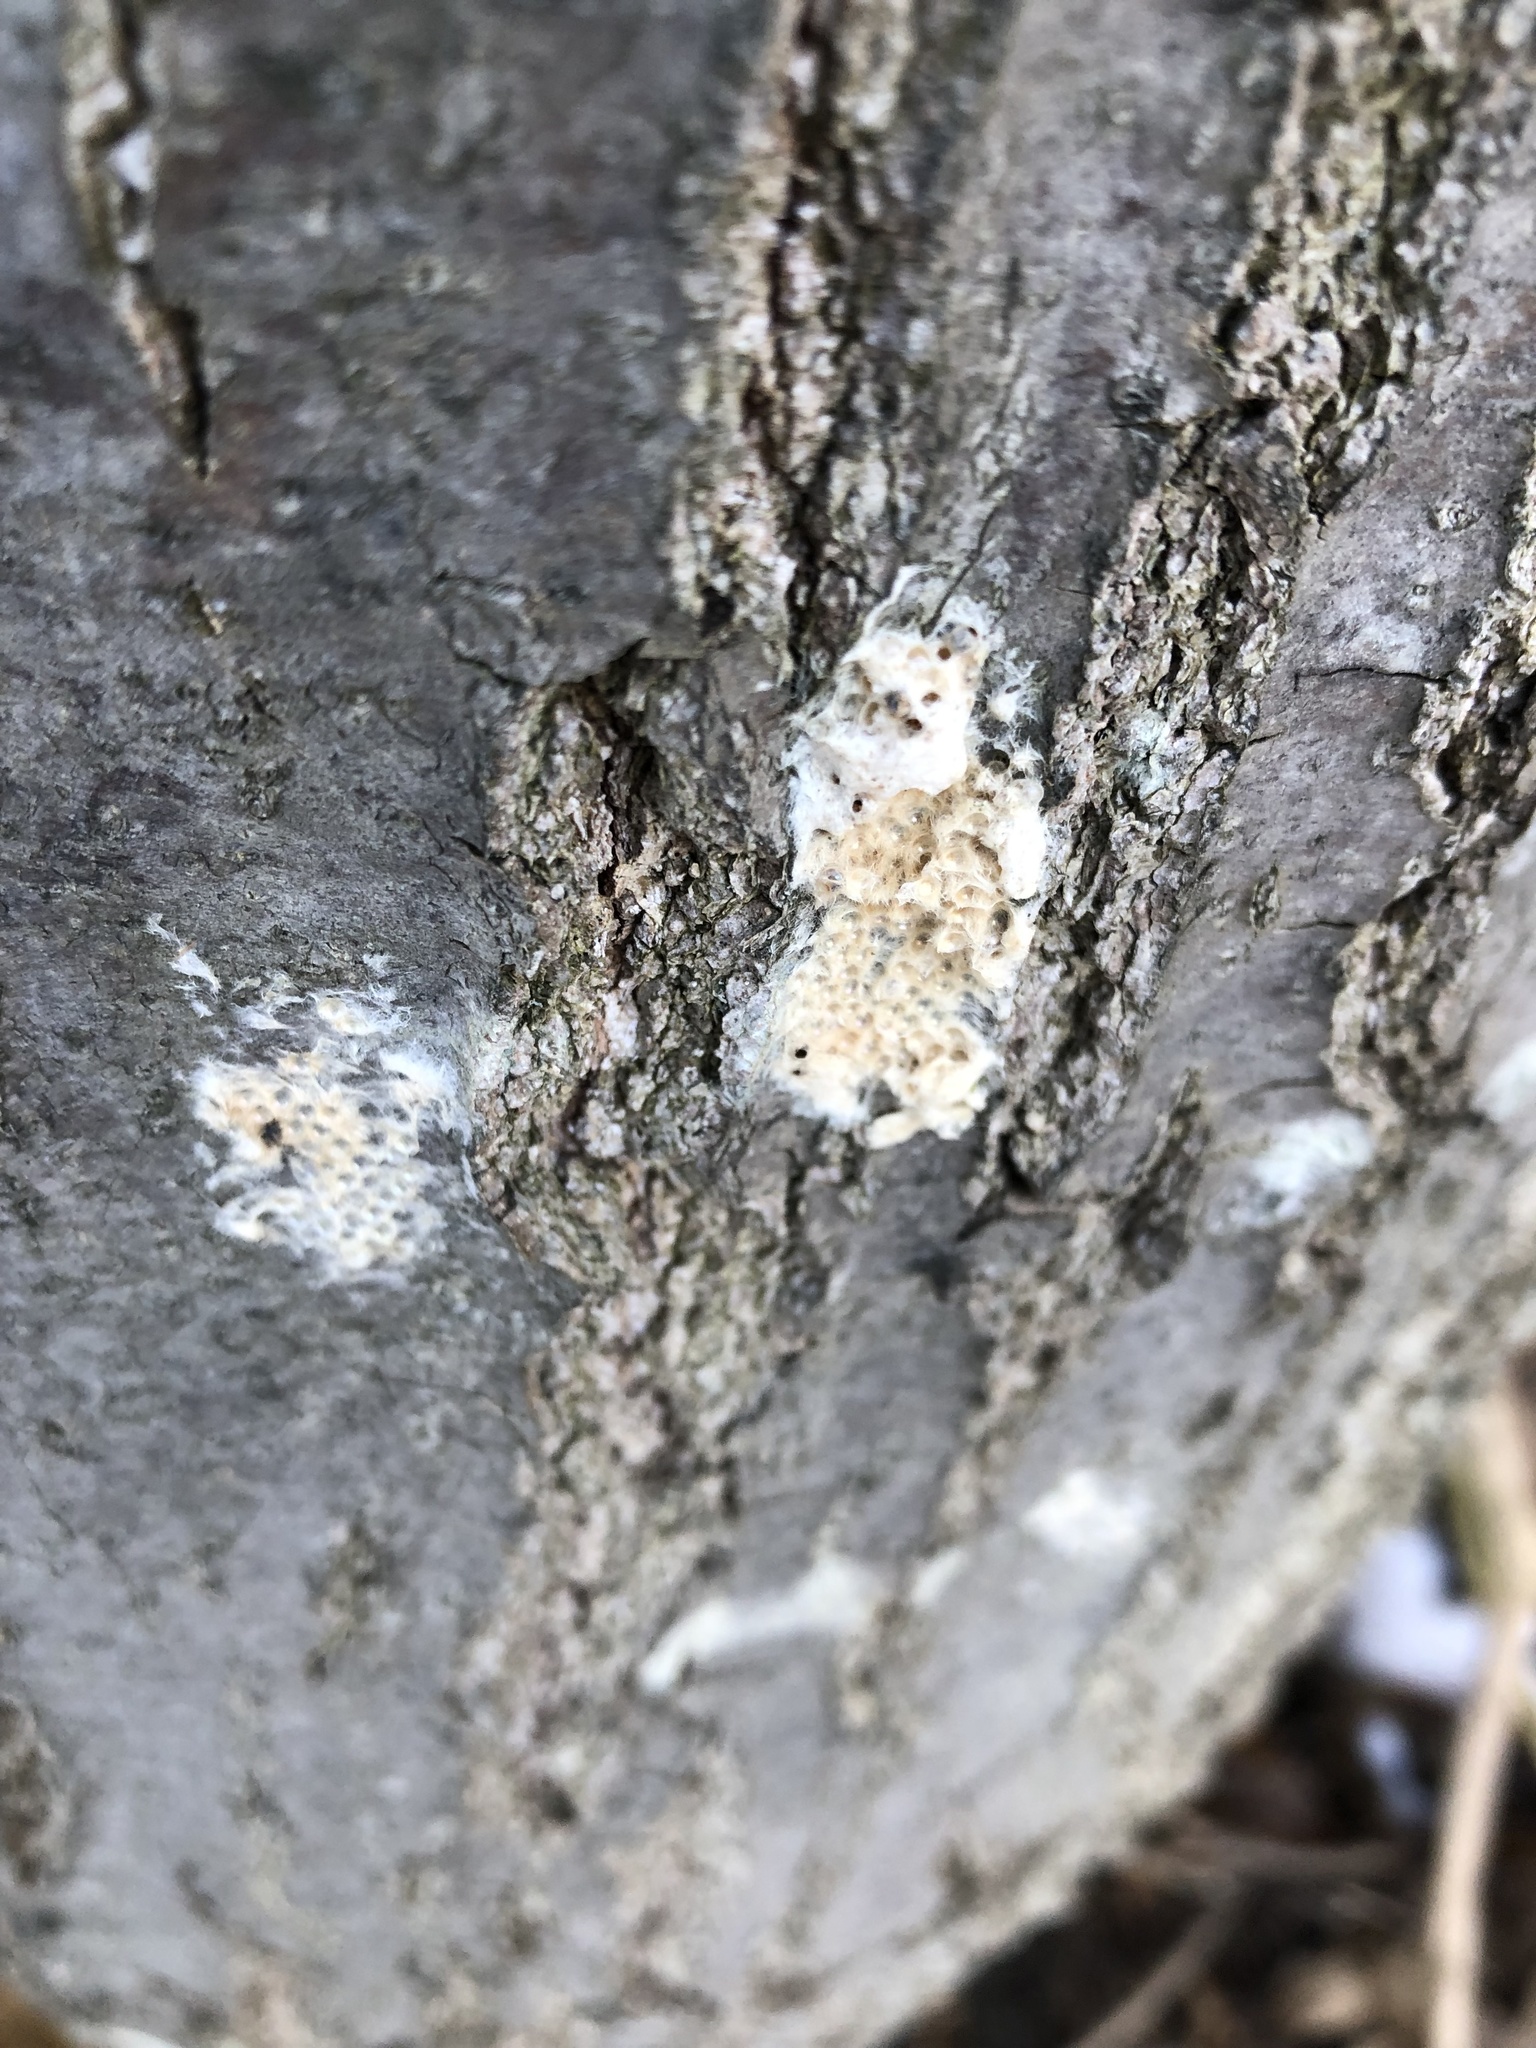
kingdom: Animalia
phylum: Arthropoda
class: Insecta
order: Lepidoptera
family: Erebidae
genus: Lymantria
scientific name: Lymantria dispar
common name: Gypsy moth
